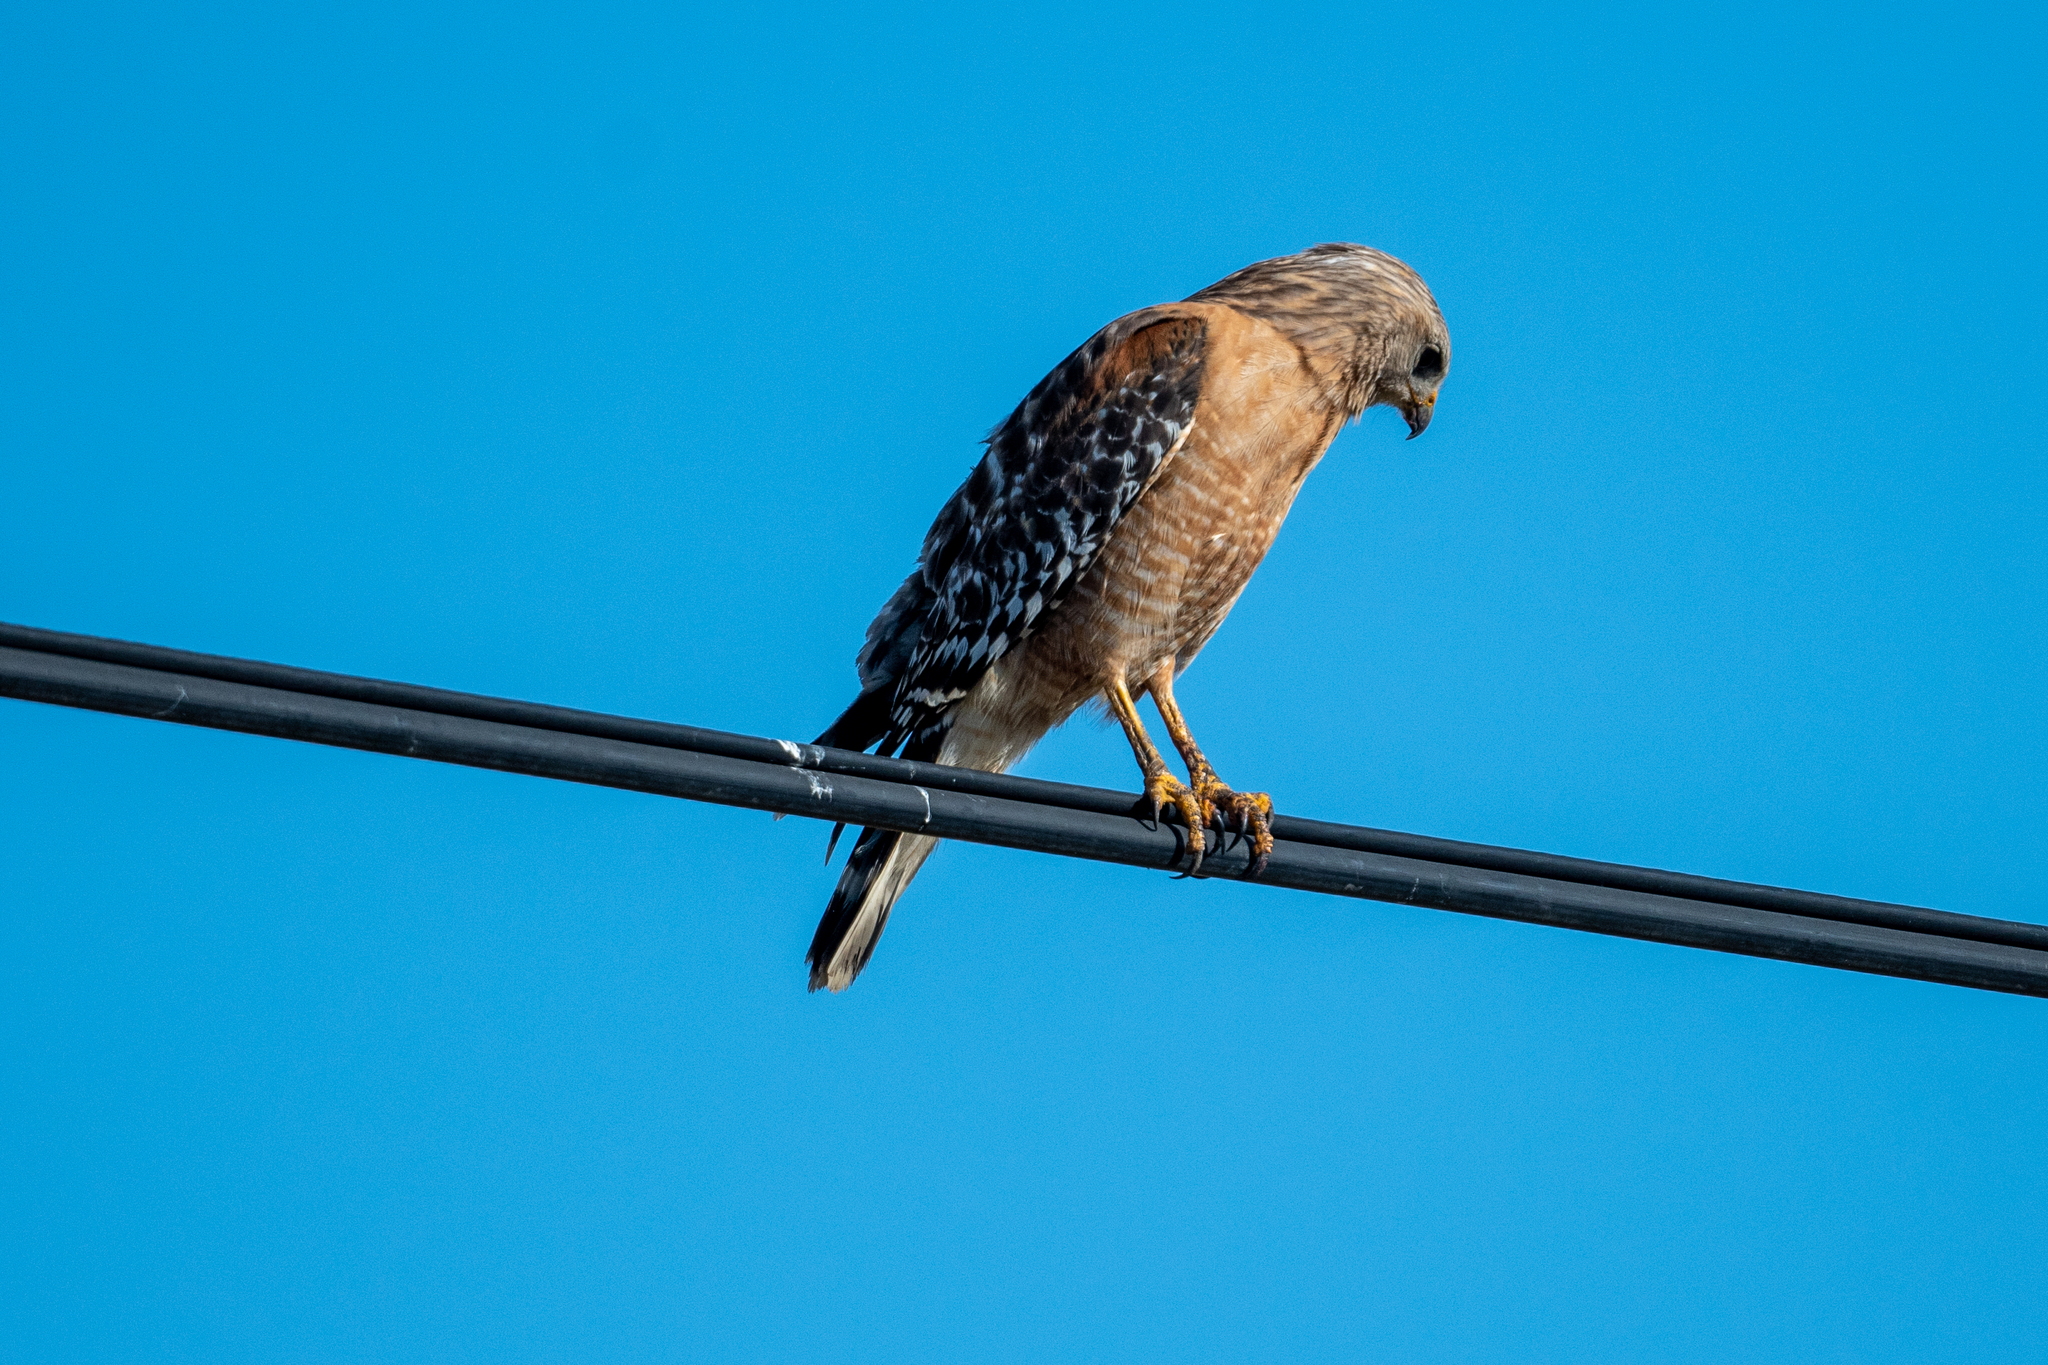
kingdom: Animalia
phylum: Chordata
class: Aves
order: Accipitriformes
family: Accipitridae
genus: Buteo
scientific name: Buteo lineatus
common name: Red-shouldered hawk
